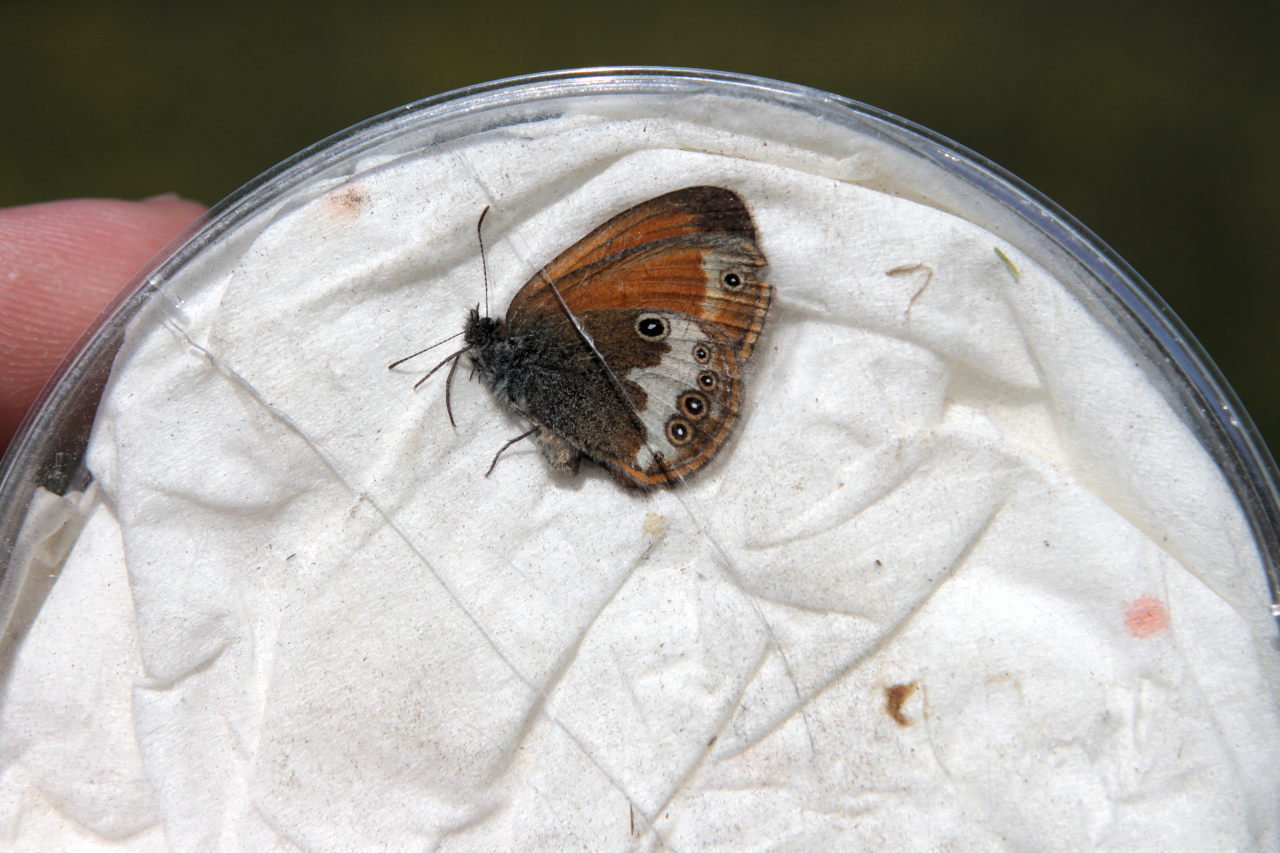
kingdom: Animalia
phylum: Arthropoda
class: Insecta
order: Lepidoptera
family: Nymphalidae
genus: Coenonympha
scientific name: Coenonympha arcania
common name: Pearly heath
